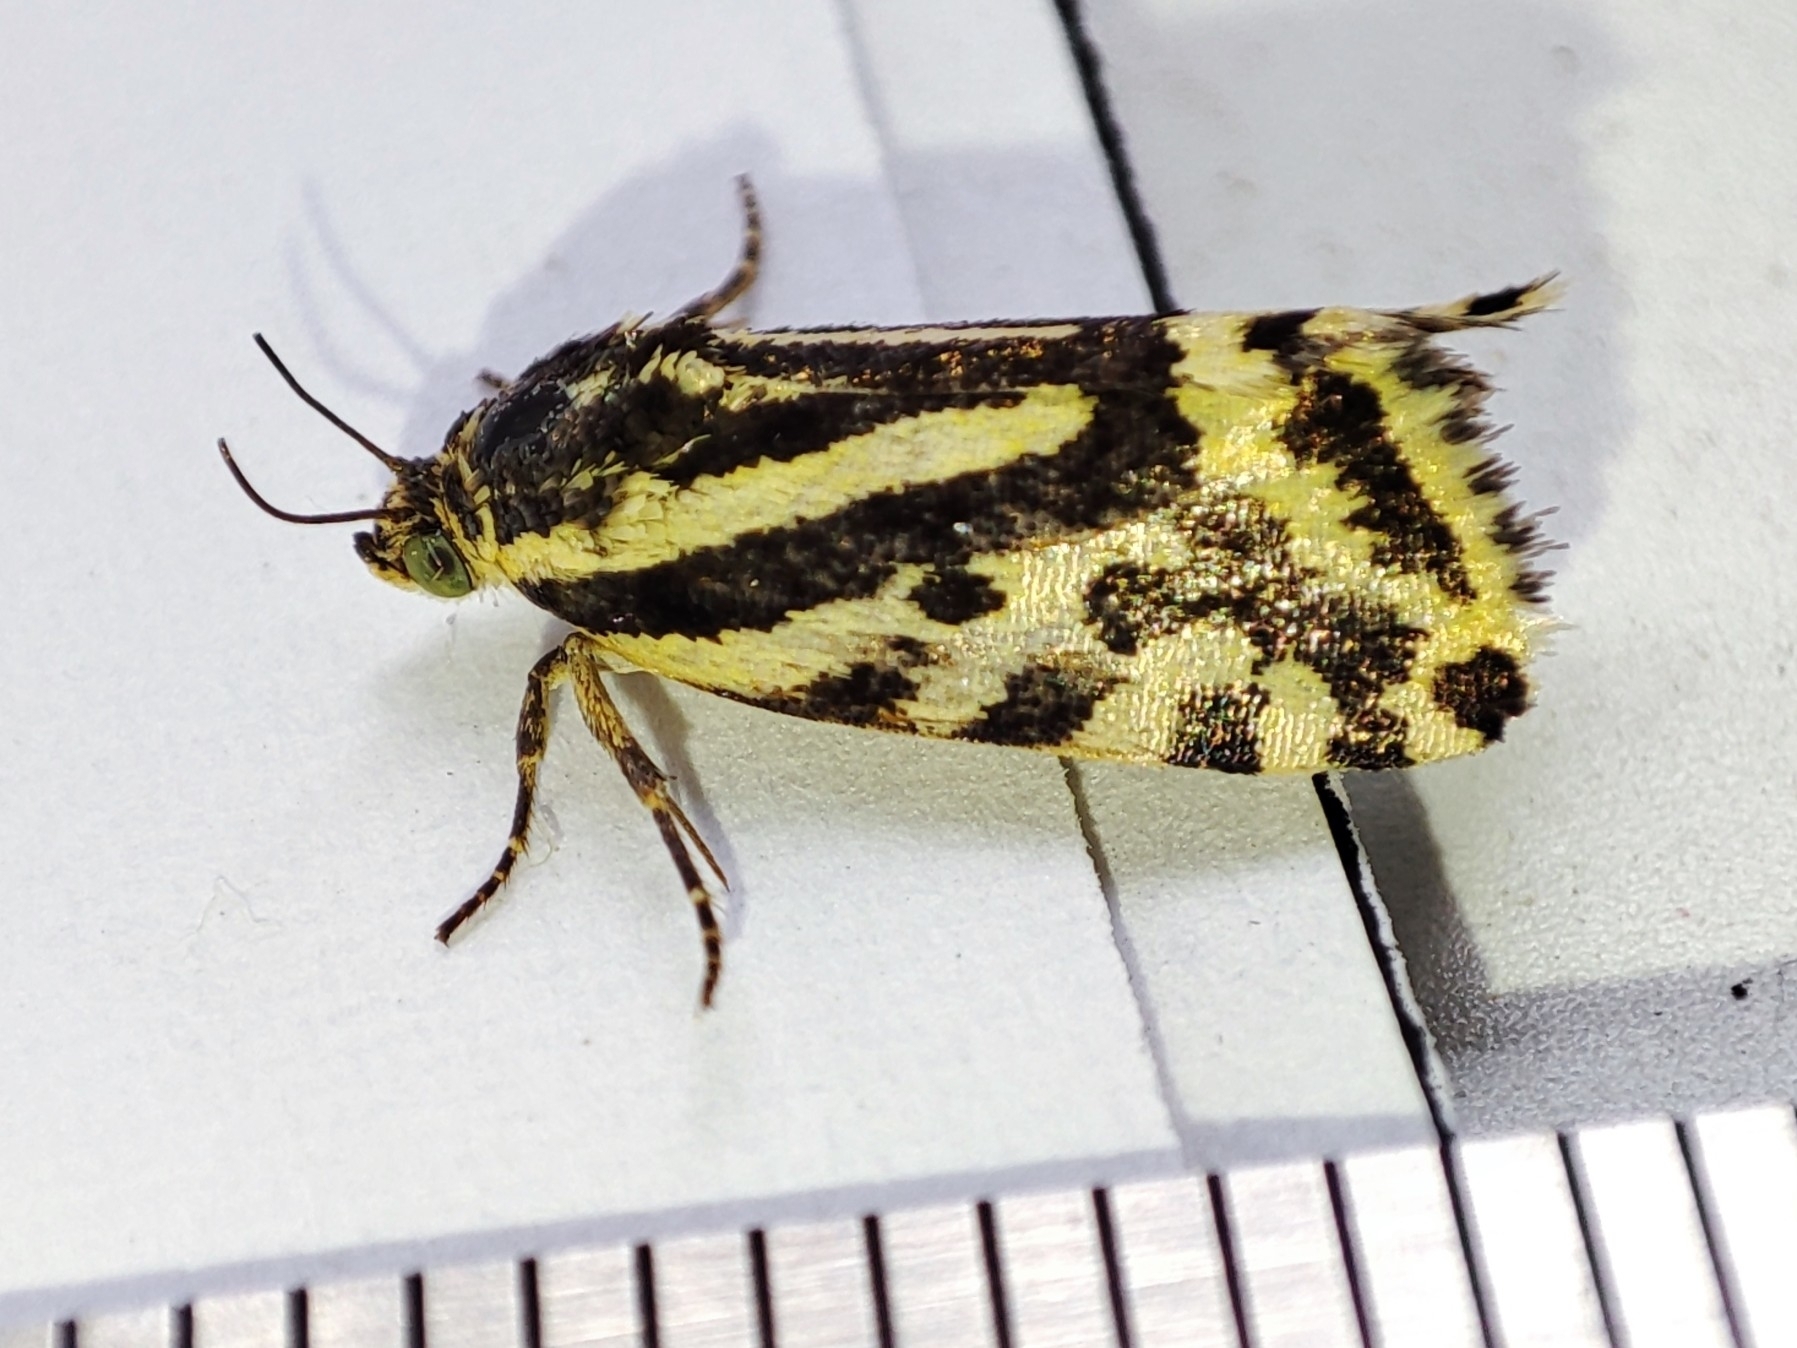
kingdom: Animalia
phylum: Arthropoda
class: Insecta
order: Lepidoptera
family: Noctuidae
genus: Acontia
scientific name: Acontia trabealis
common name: Spotted sulphur
